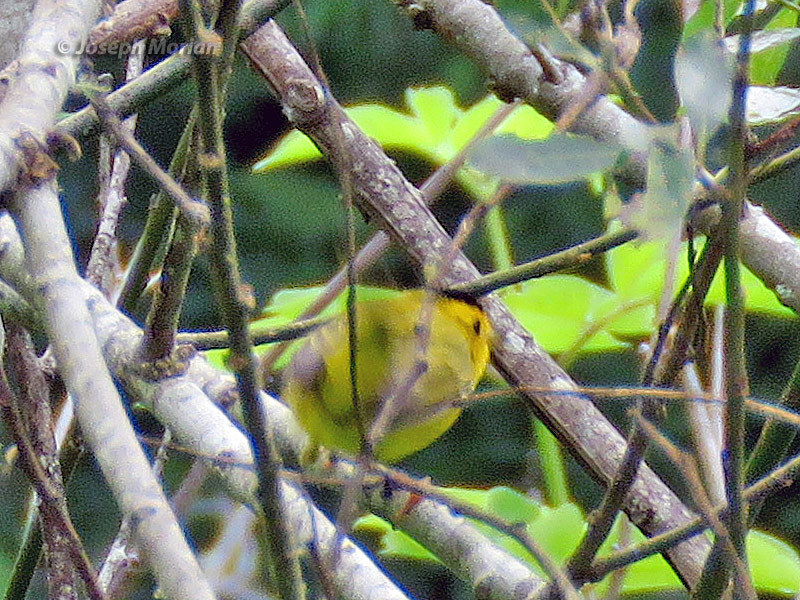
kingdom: Animalia
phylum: Chordata
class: Aves
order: Passeriformes
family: Parulidae
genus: Cardellina
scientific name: Cardellina pusilla
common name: Wilson's warbler
